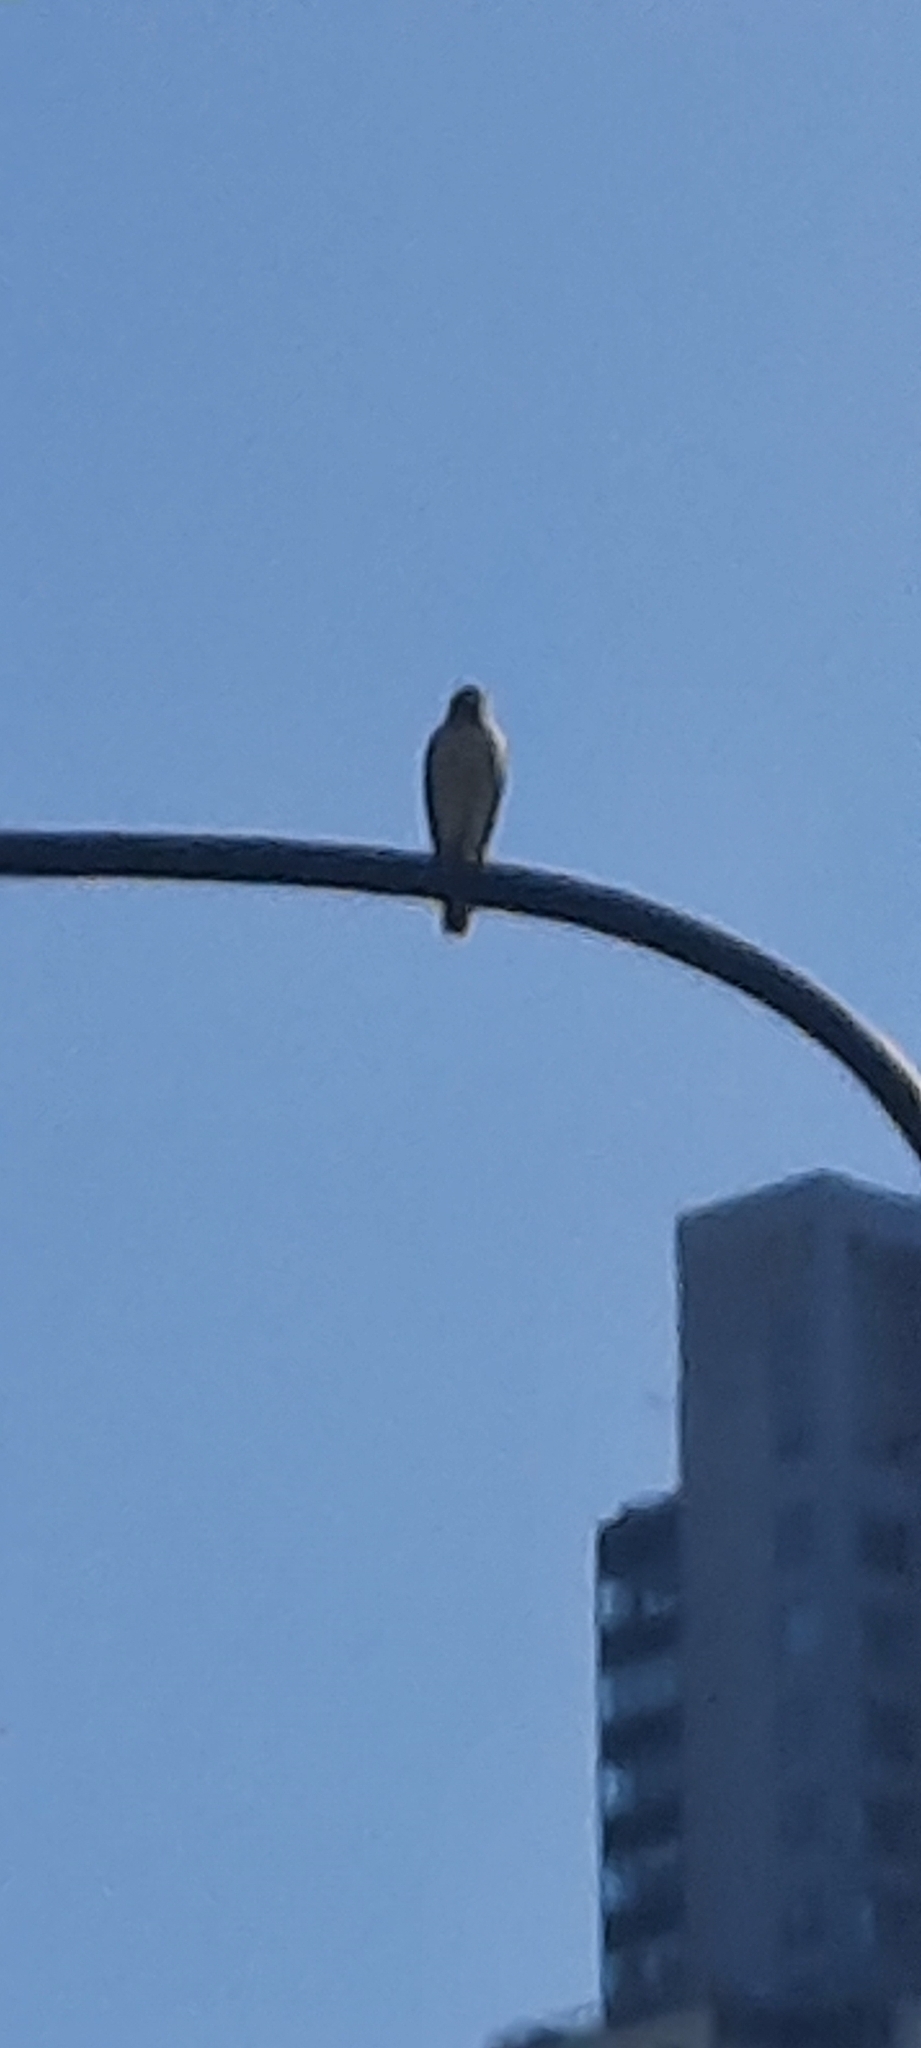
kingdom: Animalia
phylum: Chordata
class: Aves
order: Accipitriformes
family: Accipitridae
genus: Rupornis
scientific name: Rupornis magnirostris
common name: Roadside hawk
